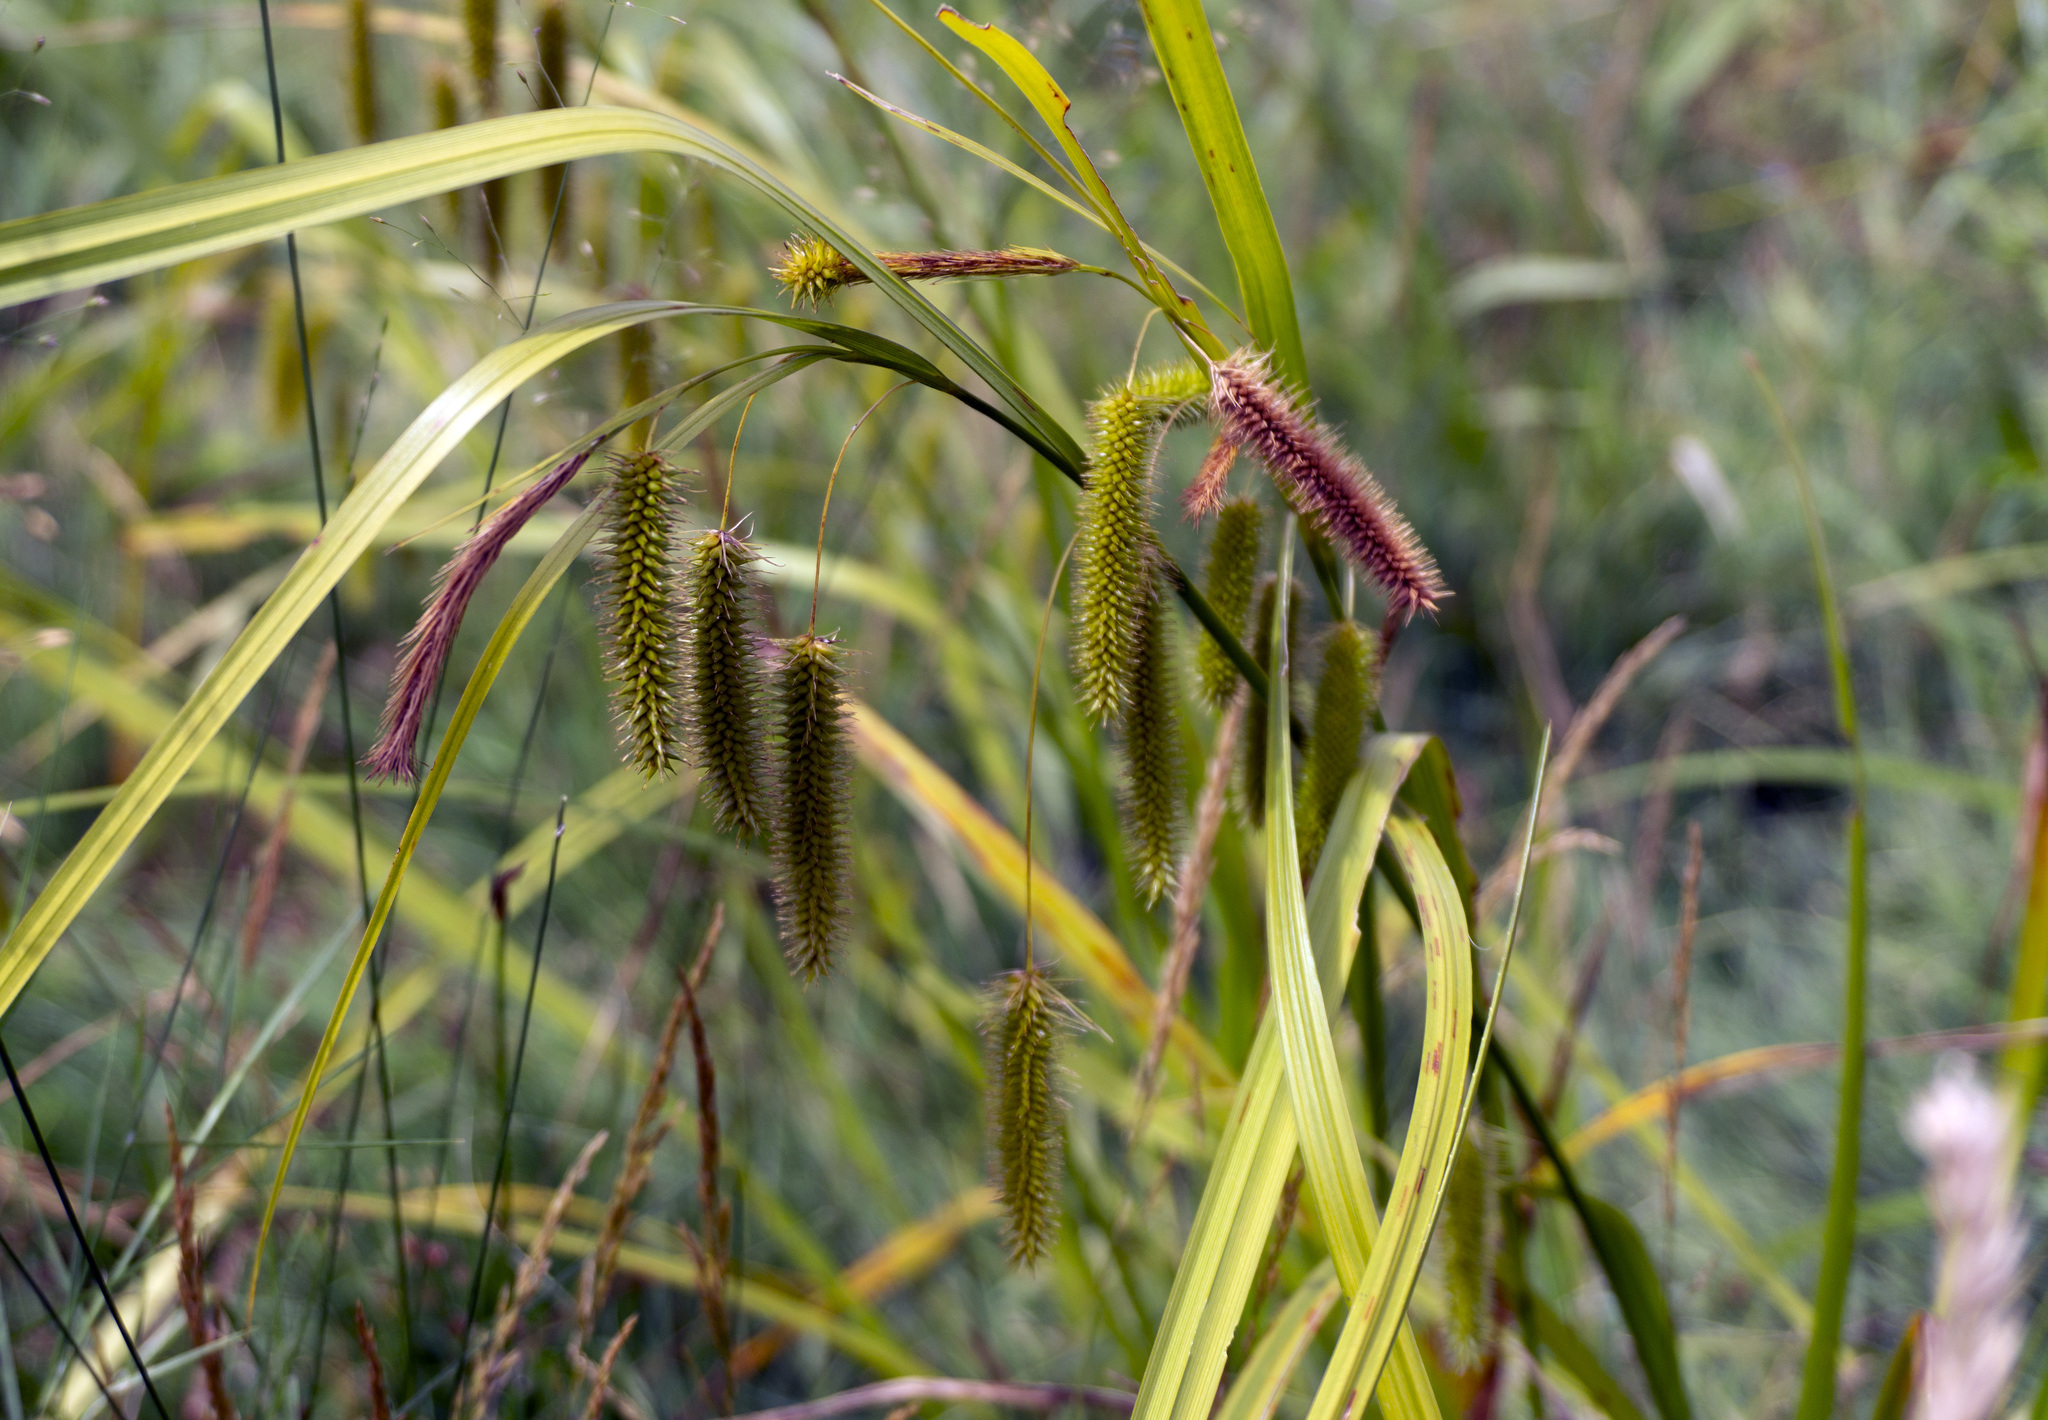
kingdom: Plantae
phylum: Tracheophyta
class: Liliopsida
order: Poales
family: Cyperaceae
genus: Carex
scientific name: Carex pseudocyperus
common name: Cyperus sedge
